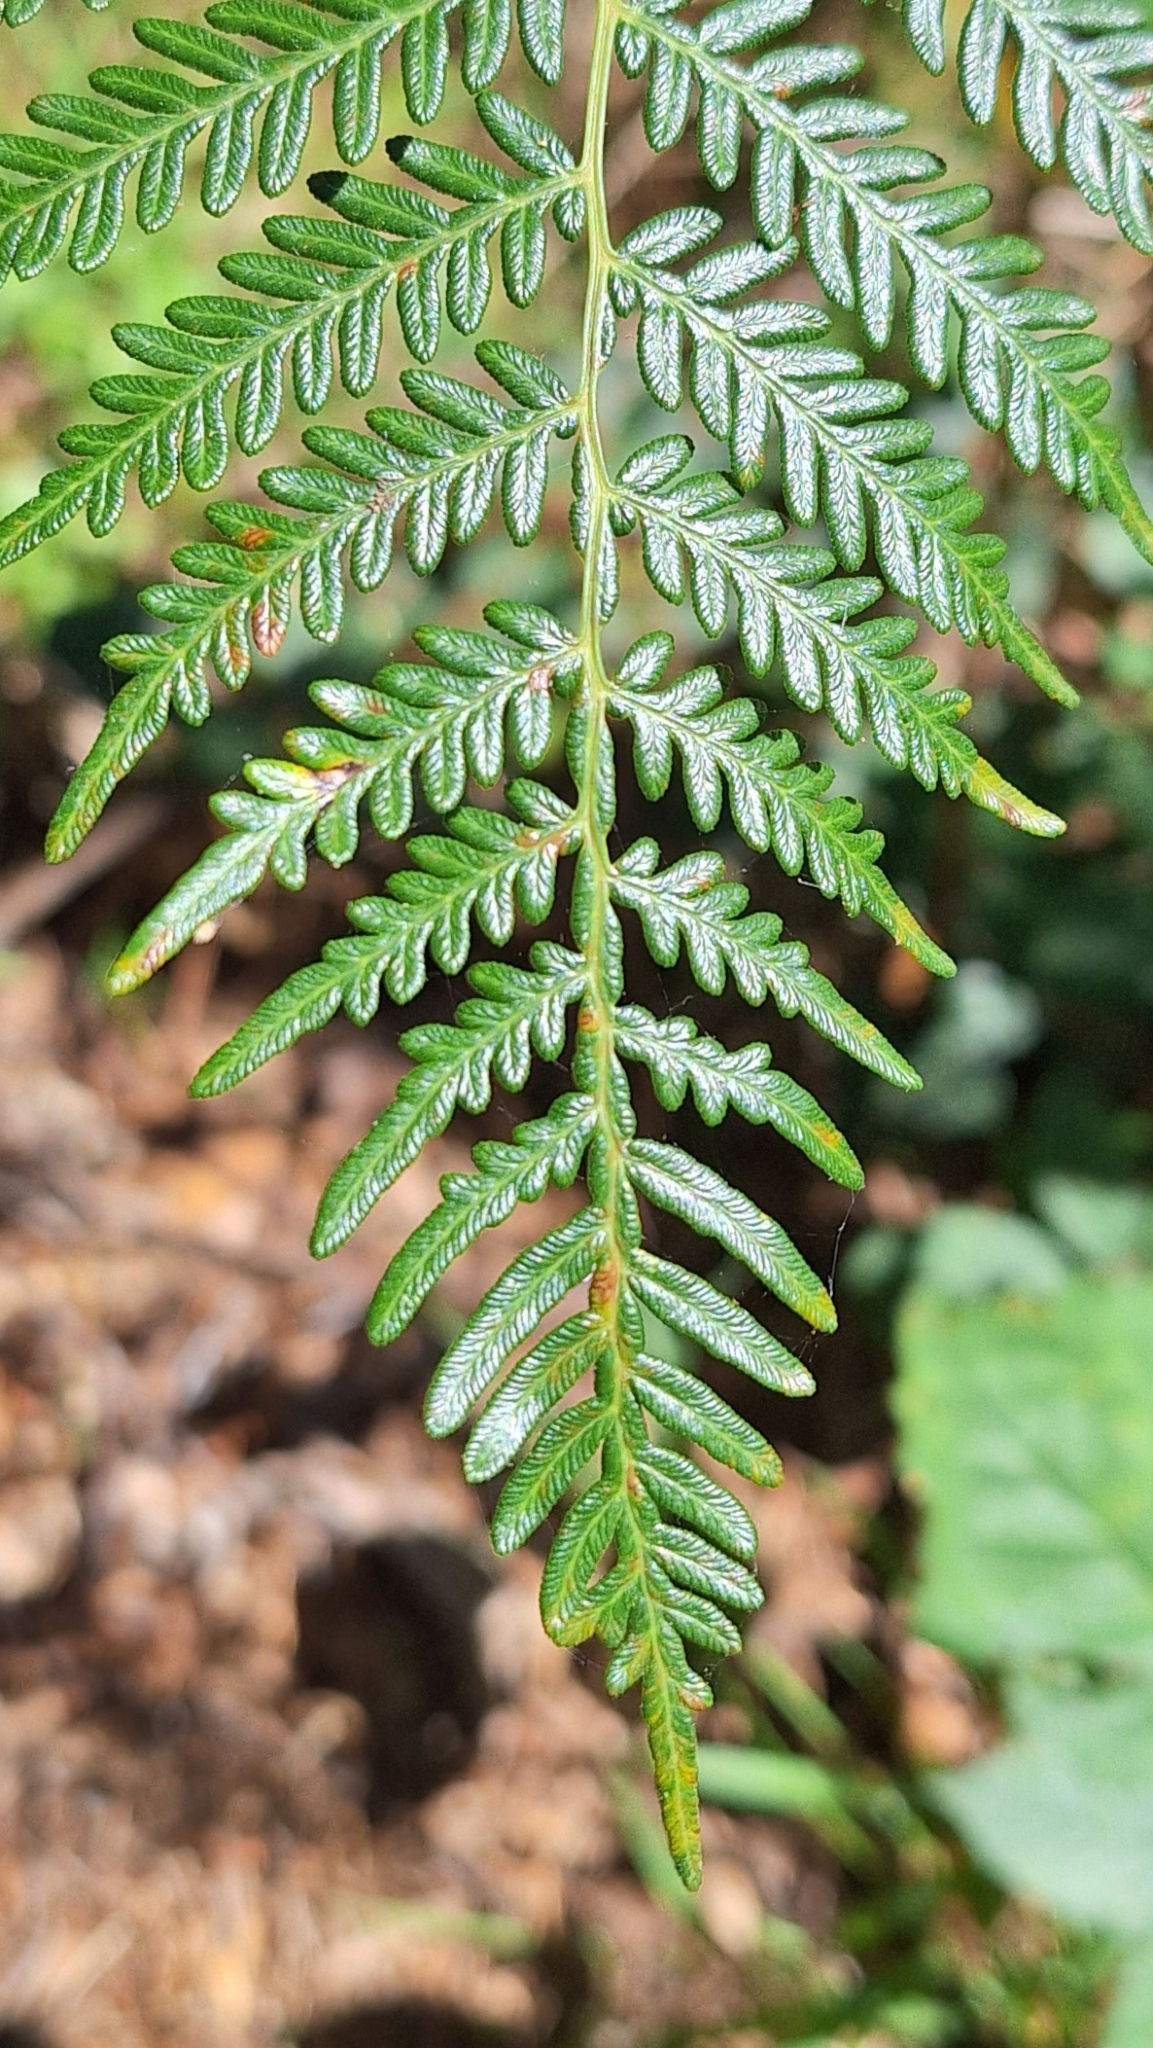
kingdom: Plantae
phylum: Tracheophyta
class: Polypodiopsida
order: Polypodiales
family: Dennstaedtiaceae
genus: Pteridium
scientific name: Pteridium esculentum
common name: Bracken fern
